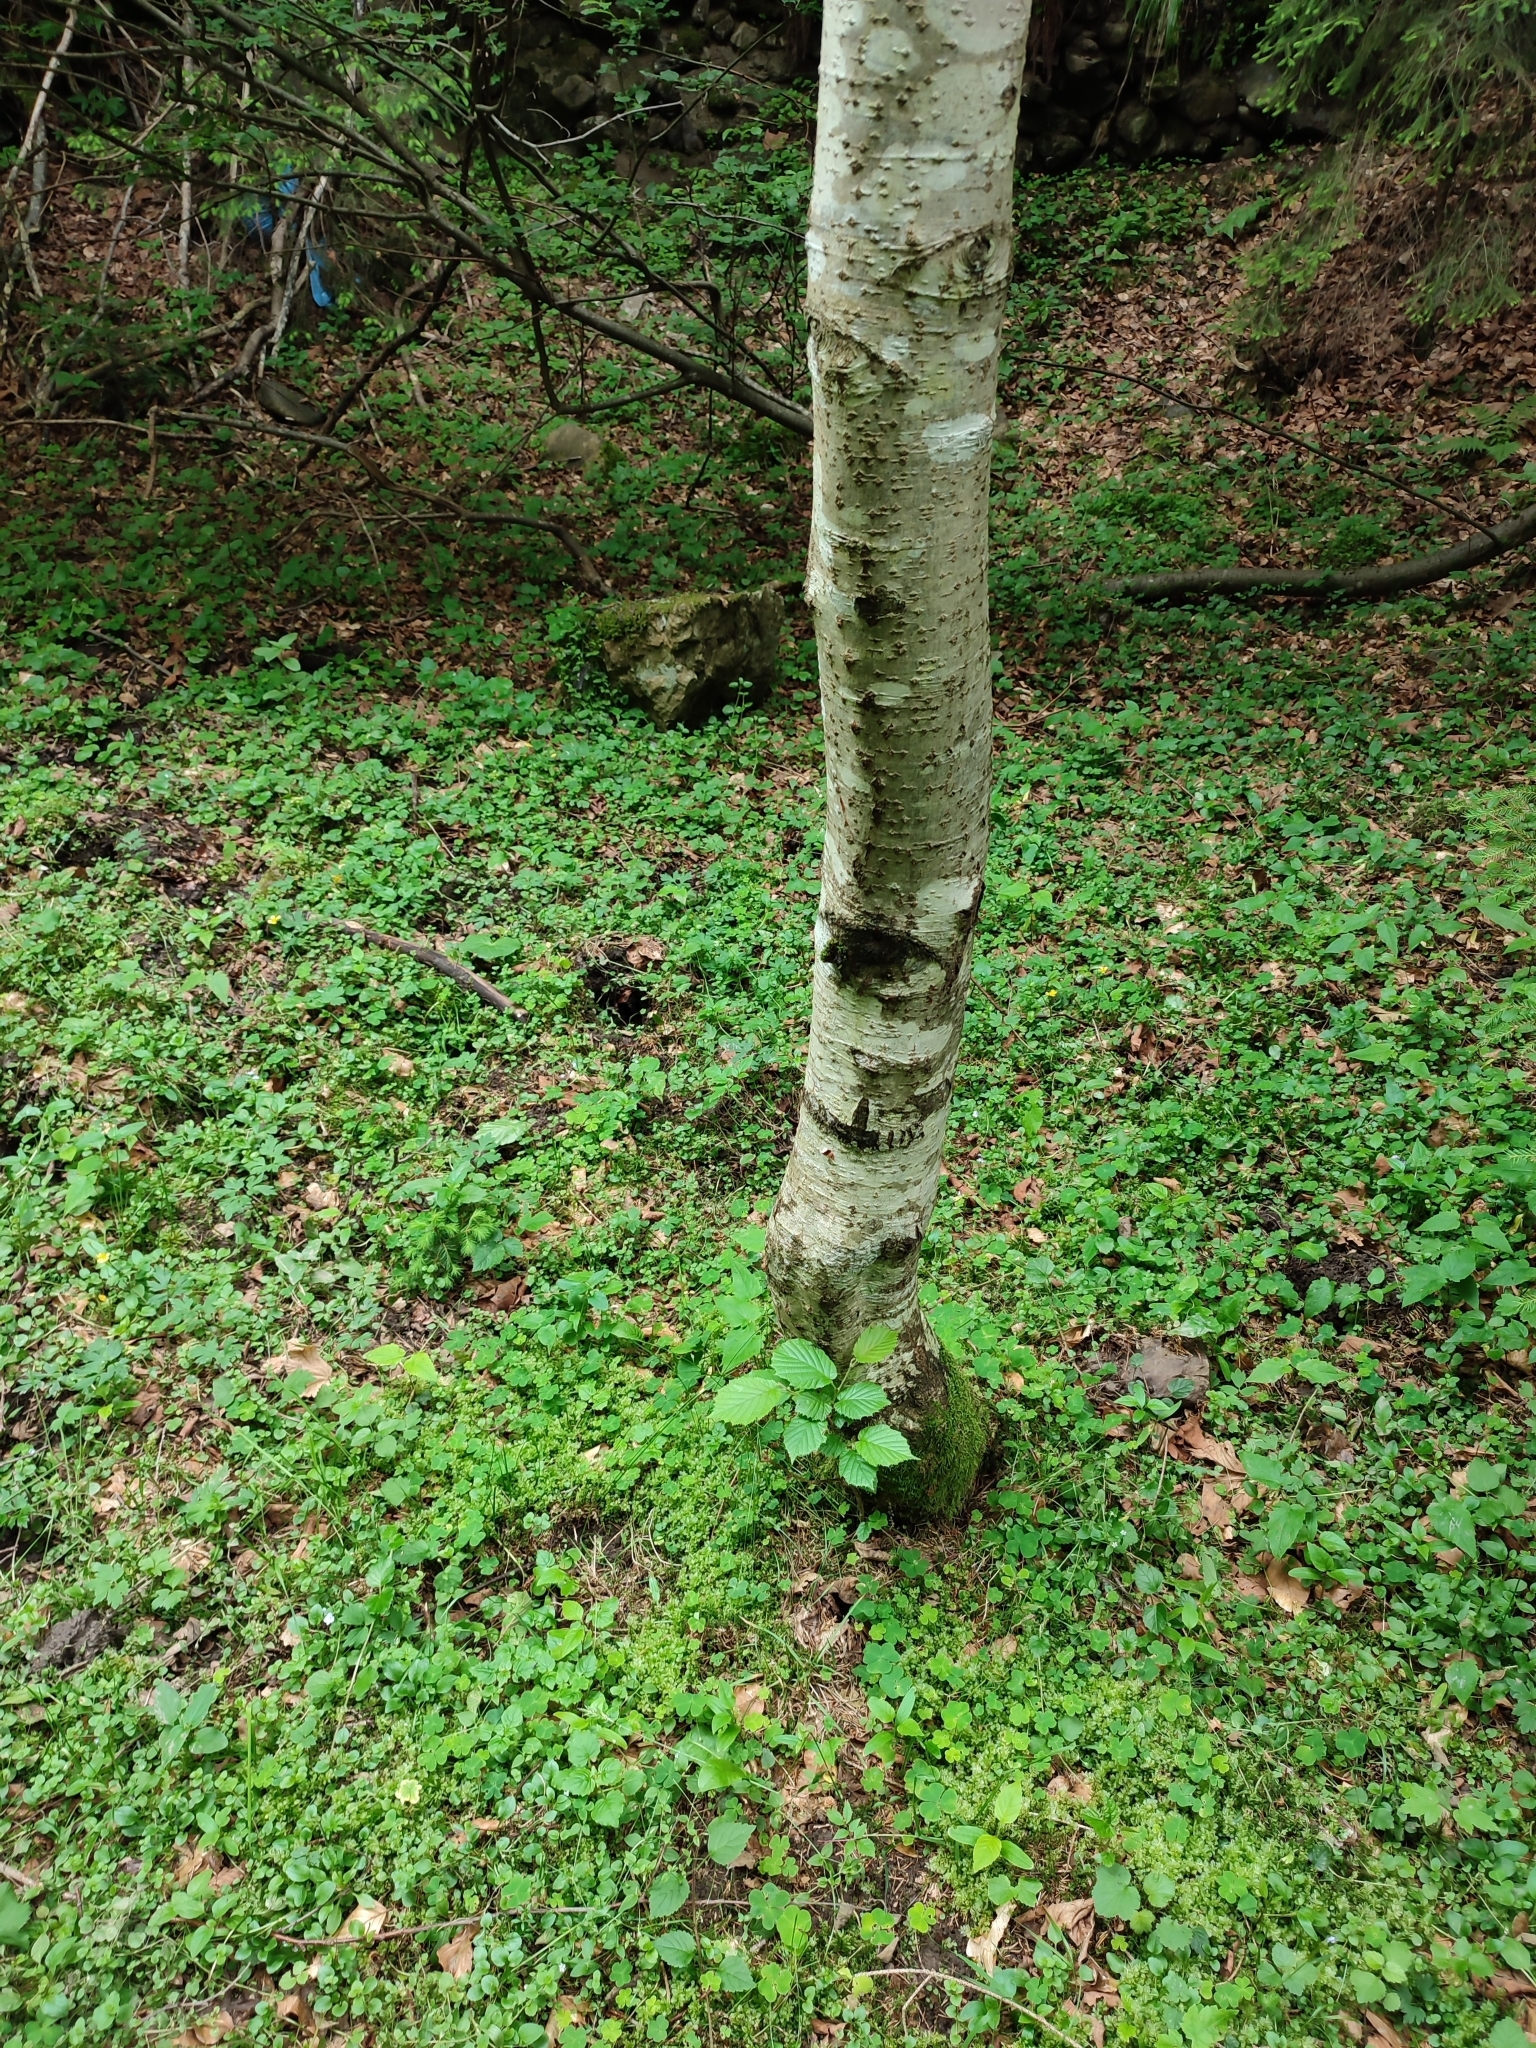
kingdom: Plantae
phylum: Tracheophyta
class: Magnoliopsida
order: Fagales
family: Betulaceae
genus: Alnus
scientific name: Alnus incana
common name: Grey alder
